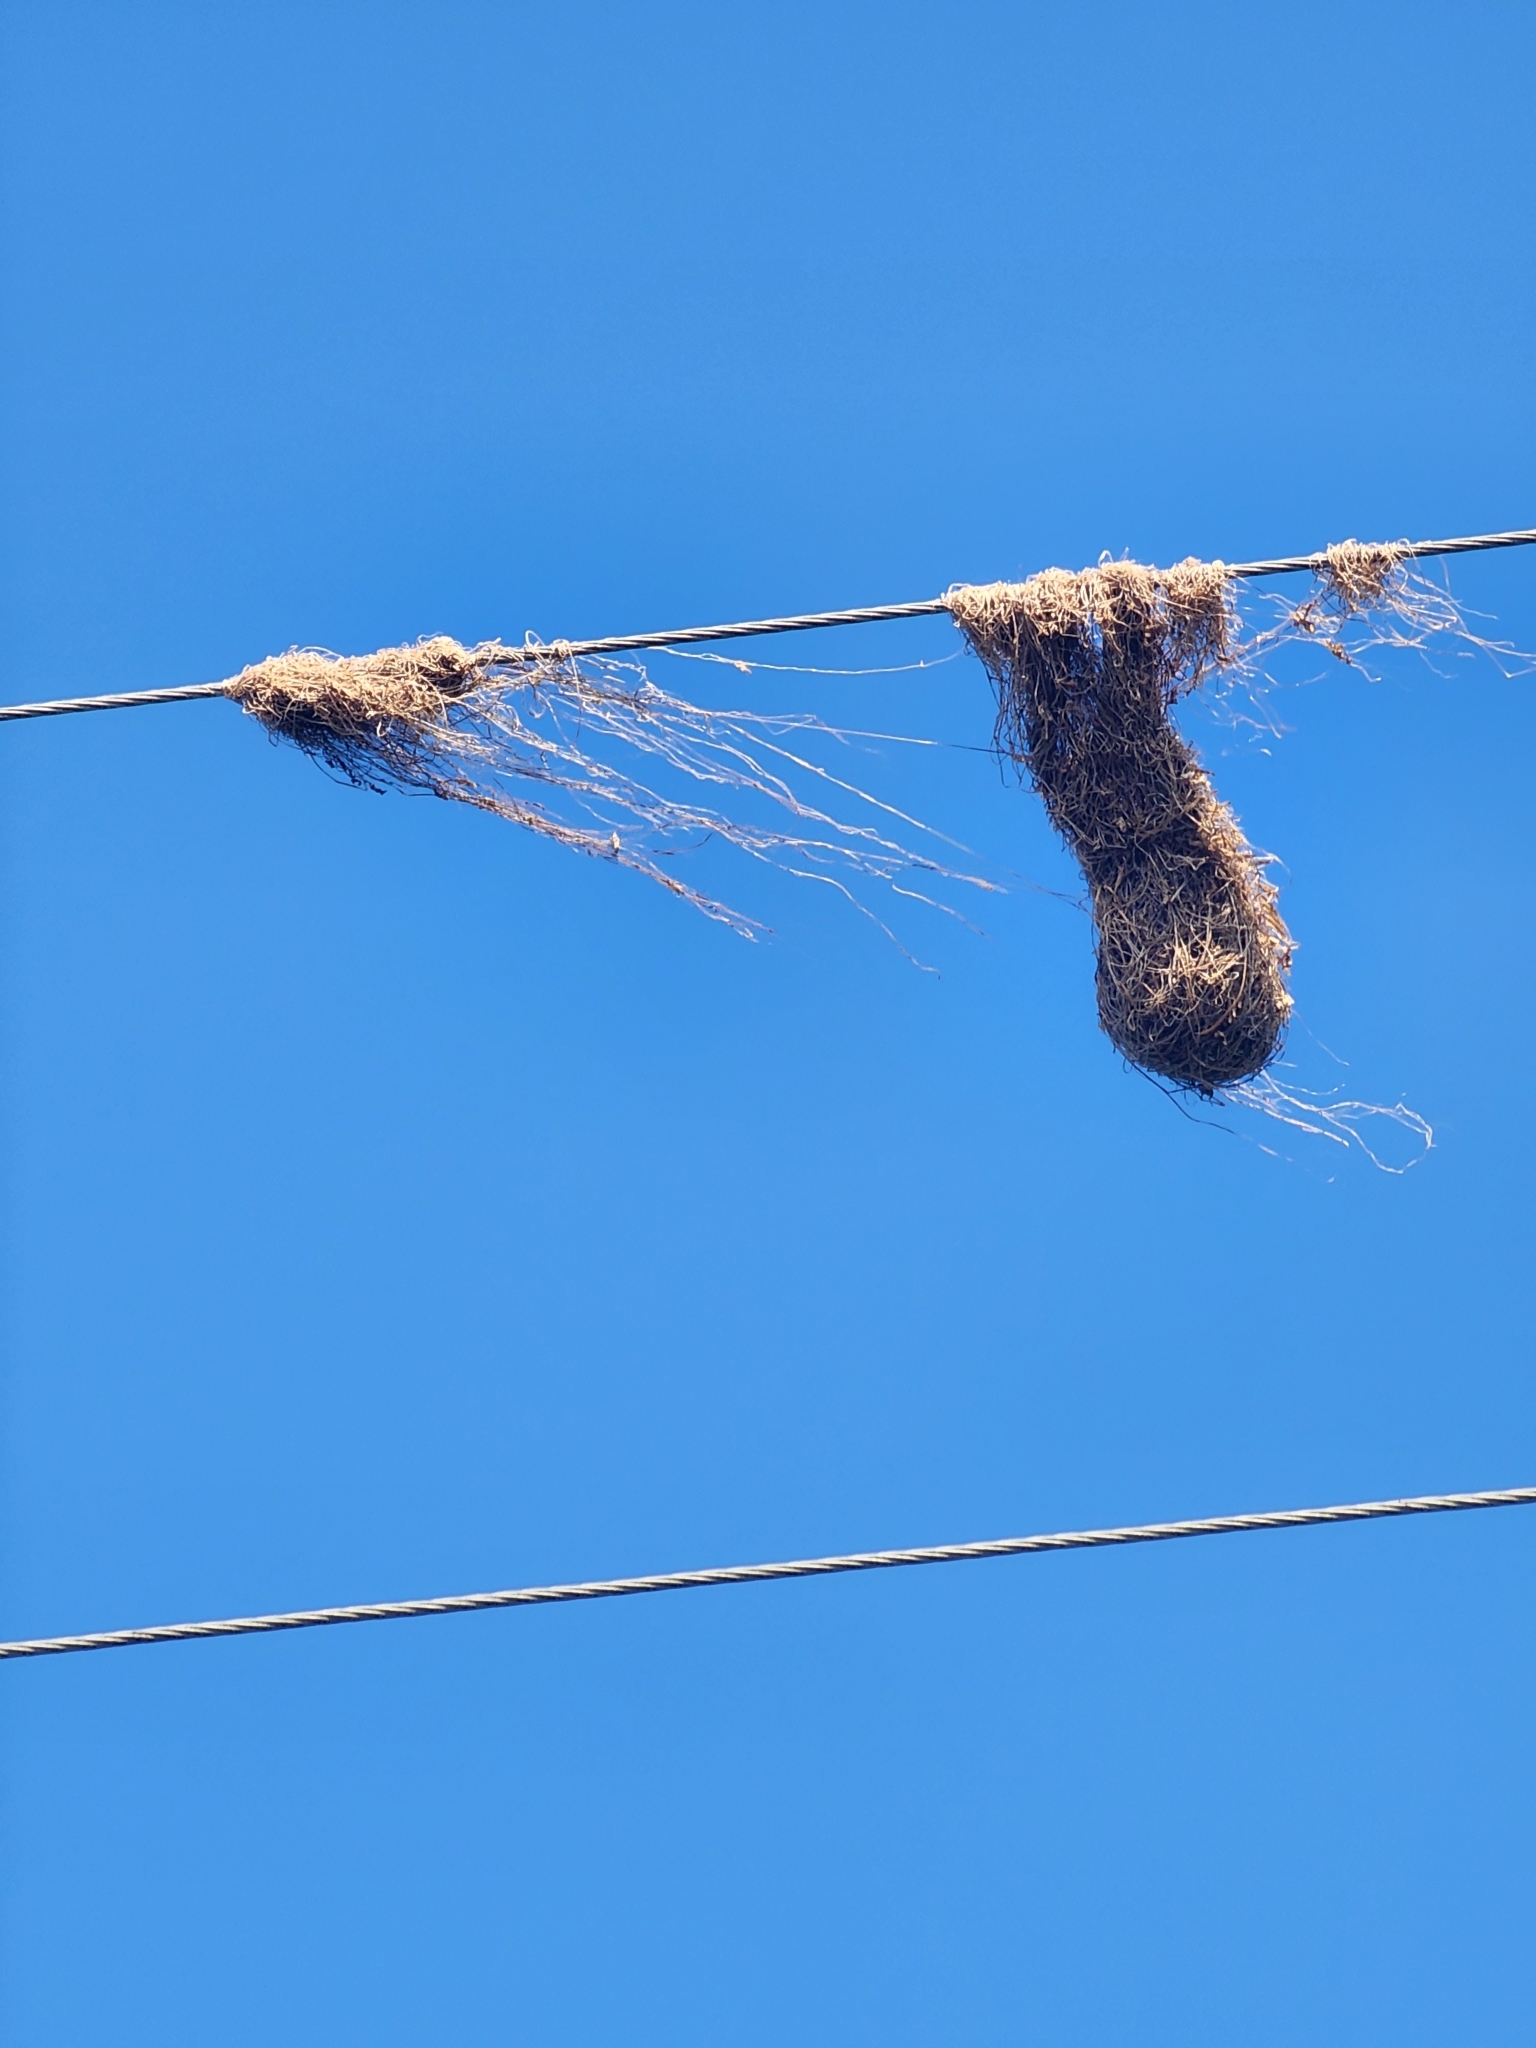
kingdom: Animalia
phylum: Chordata
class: Aves
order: Passeriformes
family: Icteridae
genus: Icterus
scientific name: Icterus gularis
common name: Altamira oriole
